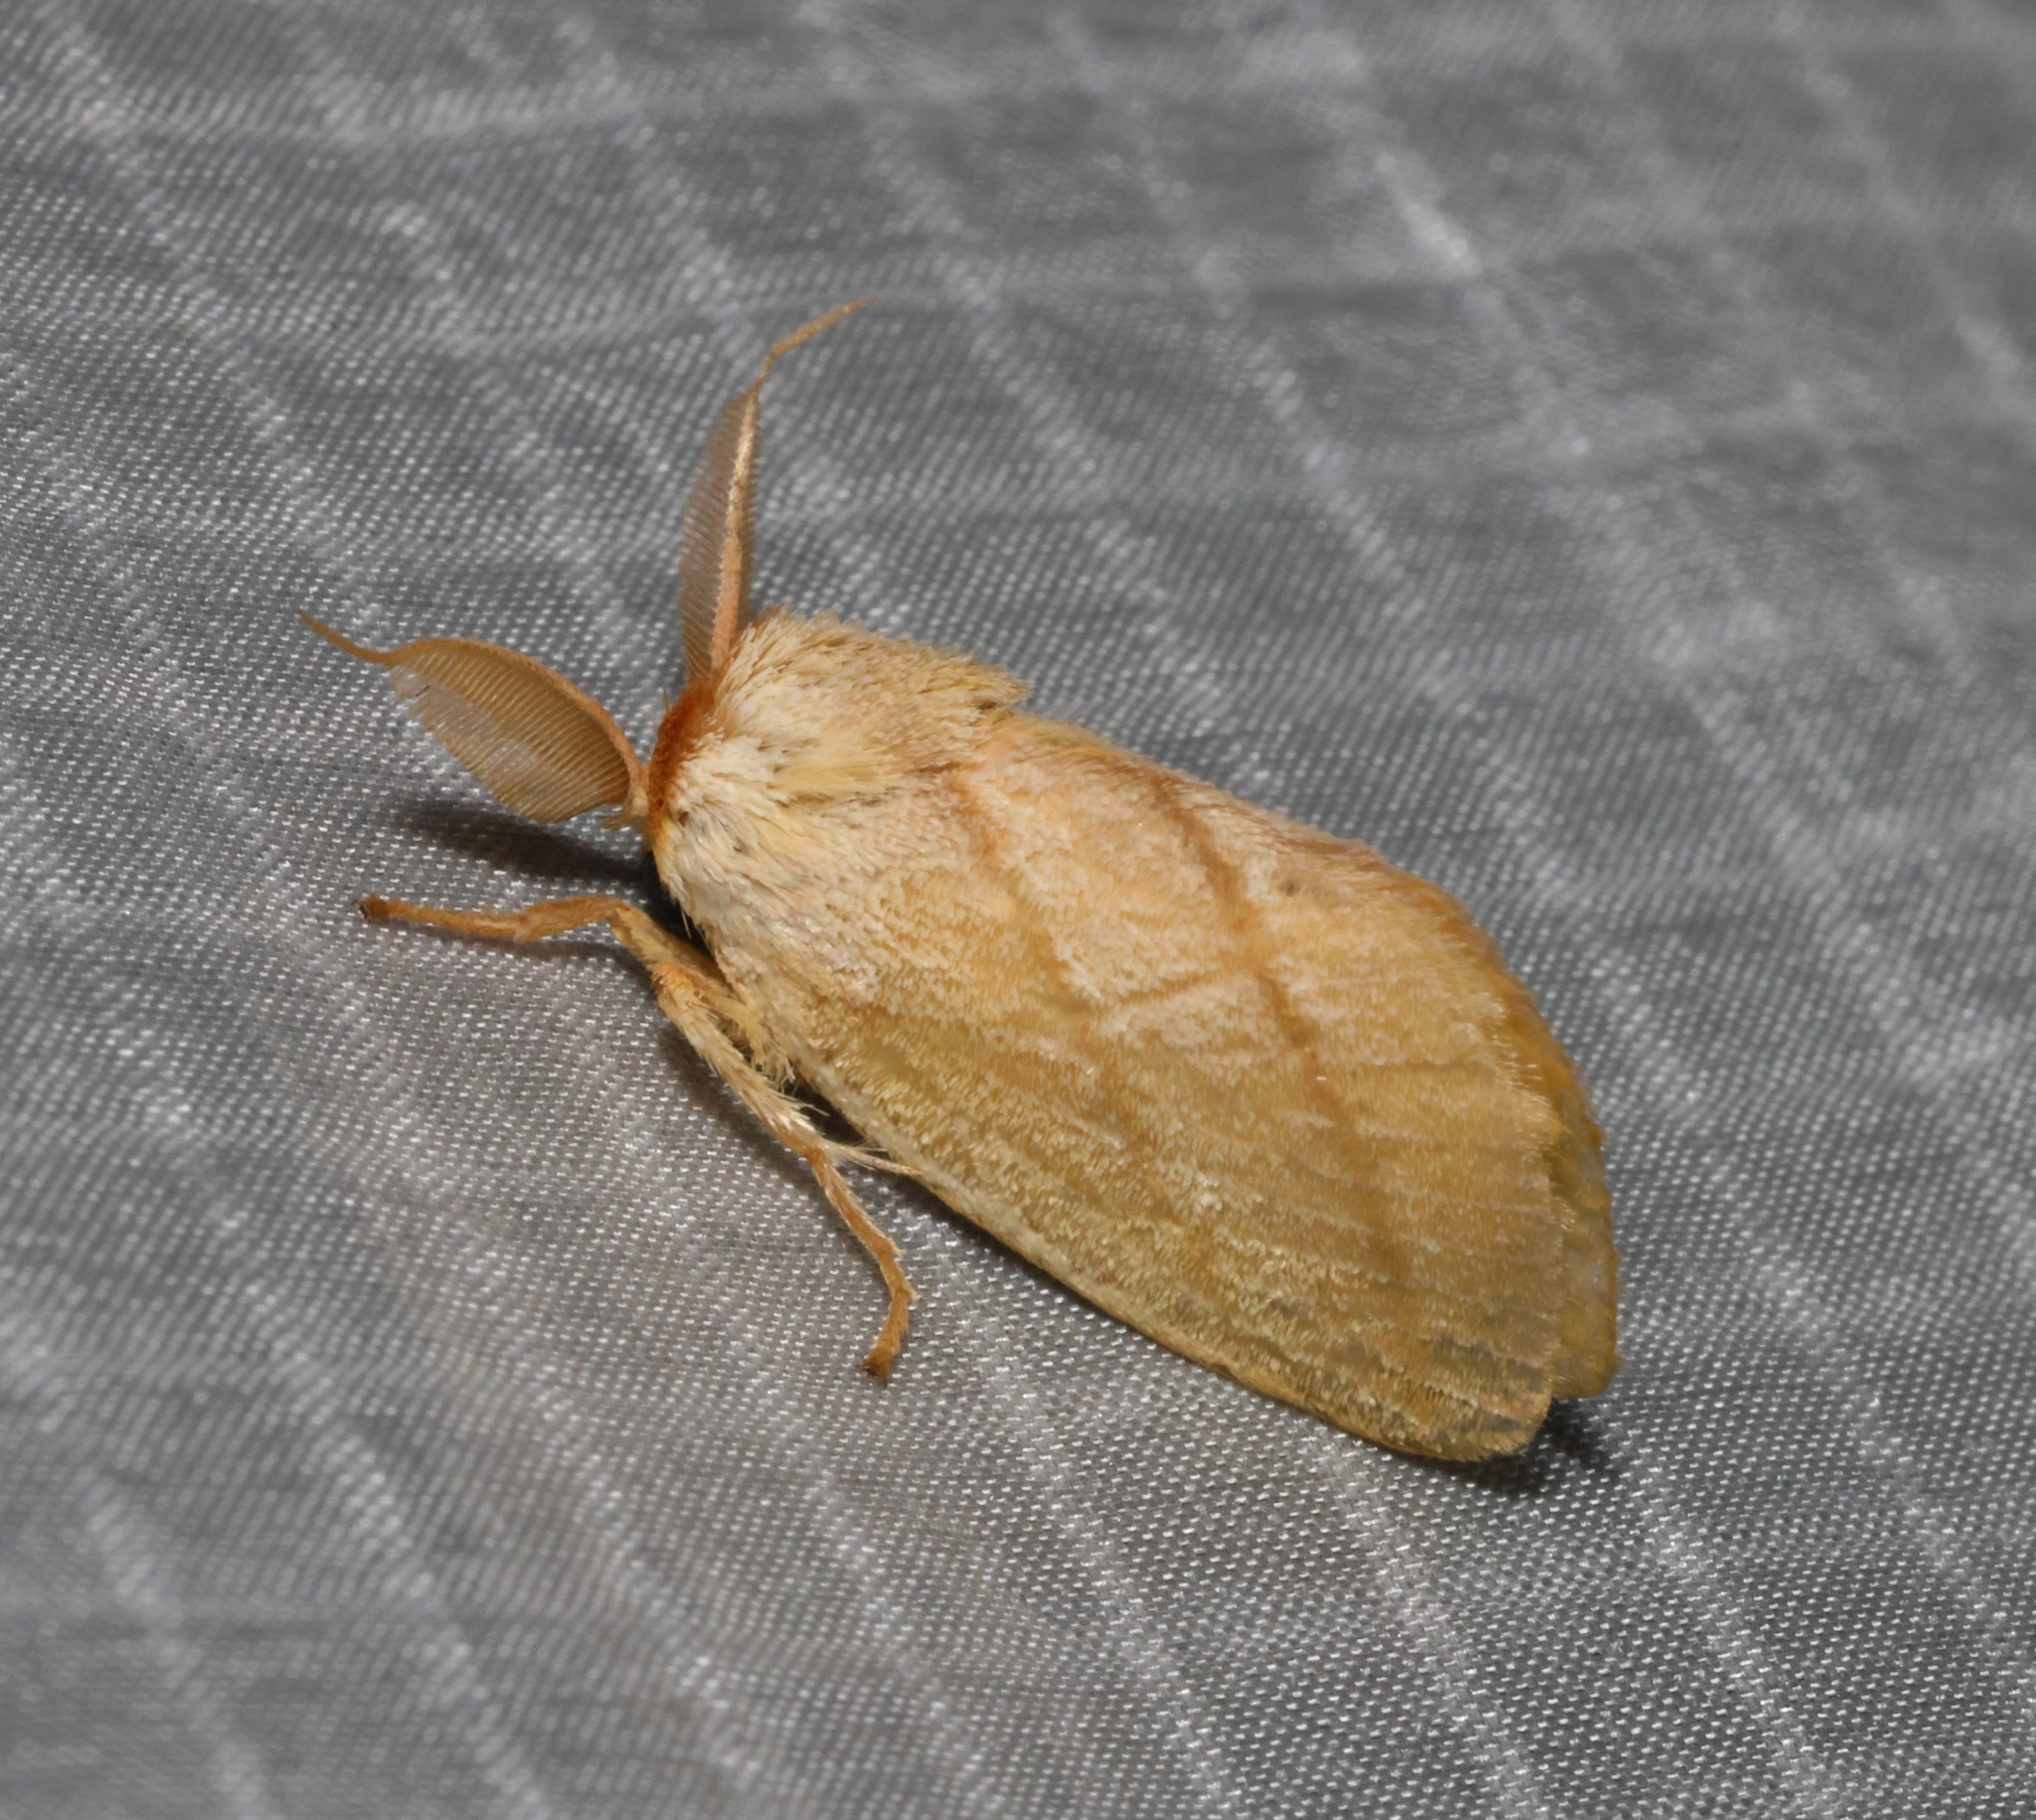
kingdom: Animalia
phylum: Arthropoda
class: Insecta
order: Lepidoptera
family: Limacodidae
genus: Cania
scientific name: Cania bilinea
